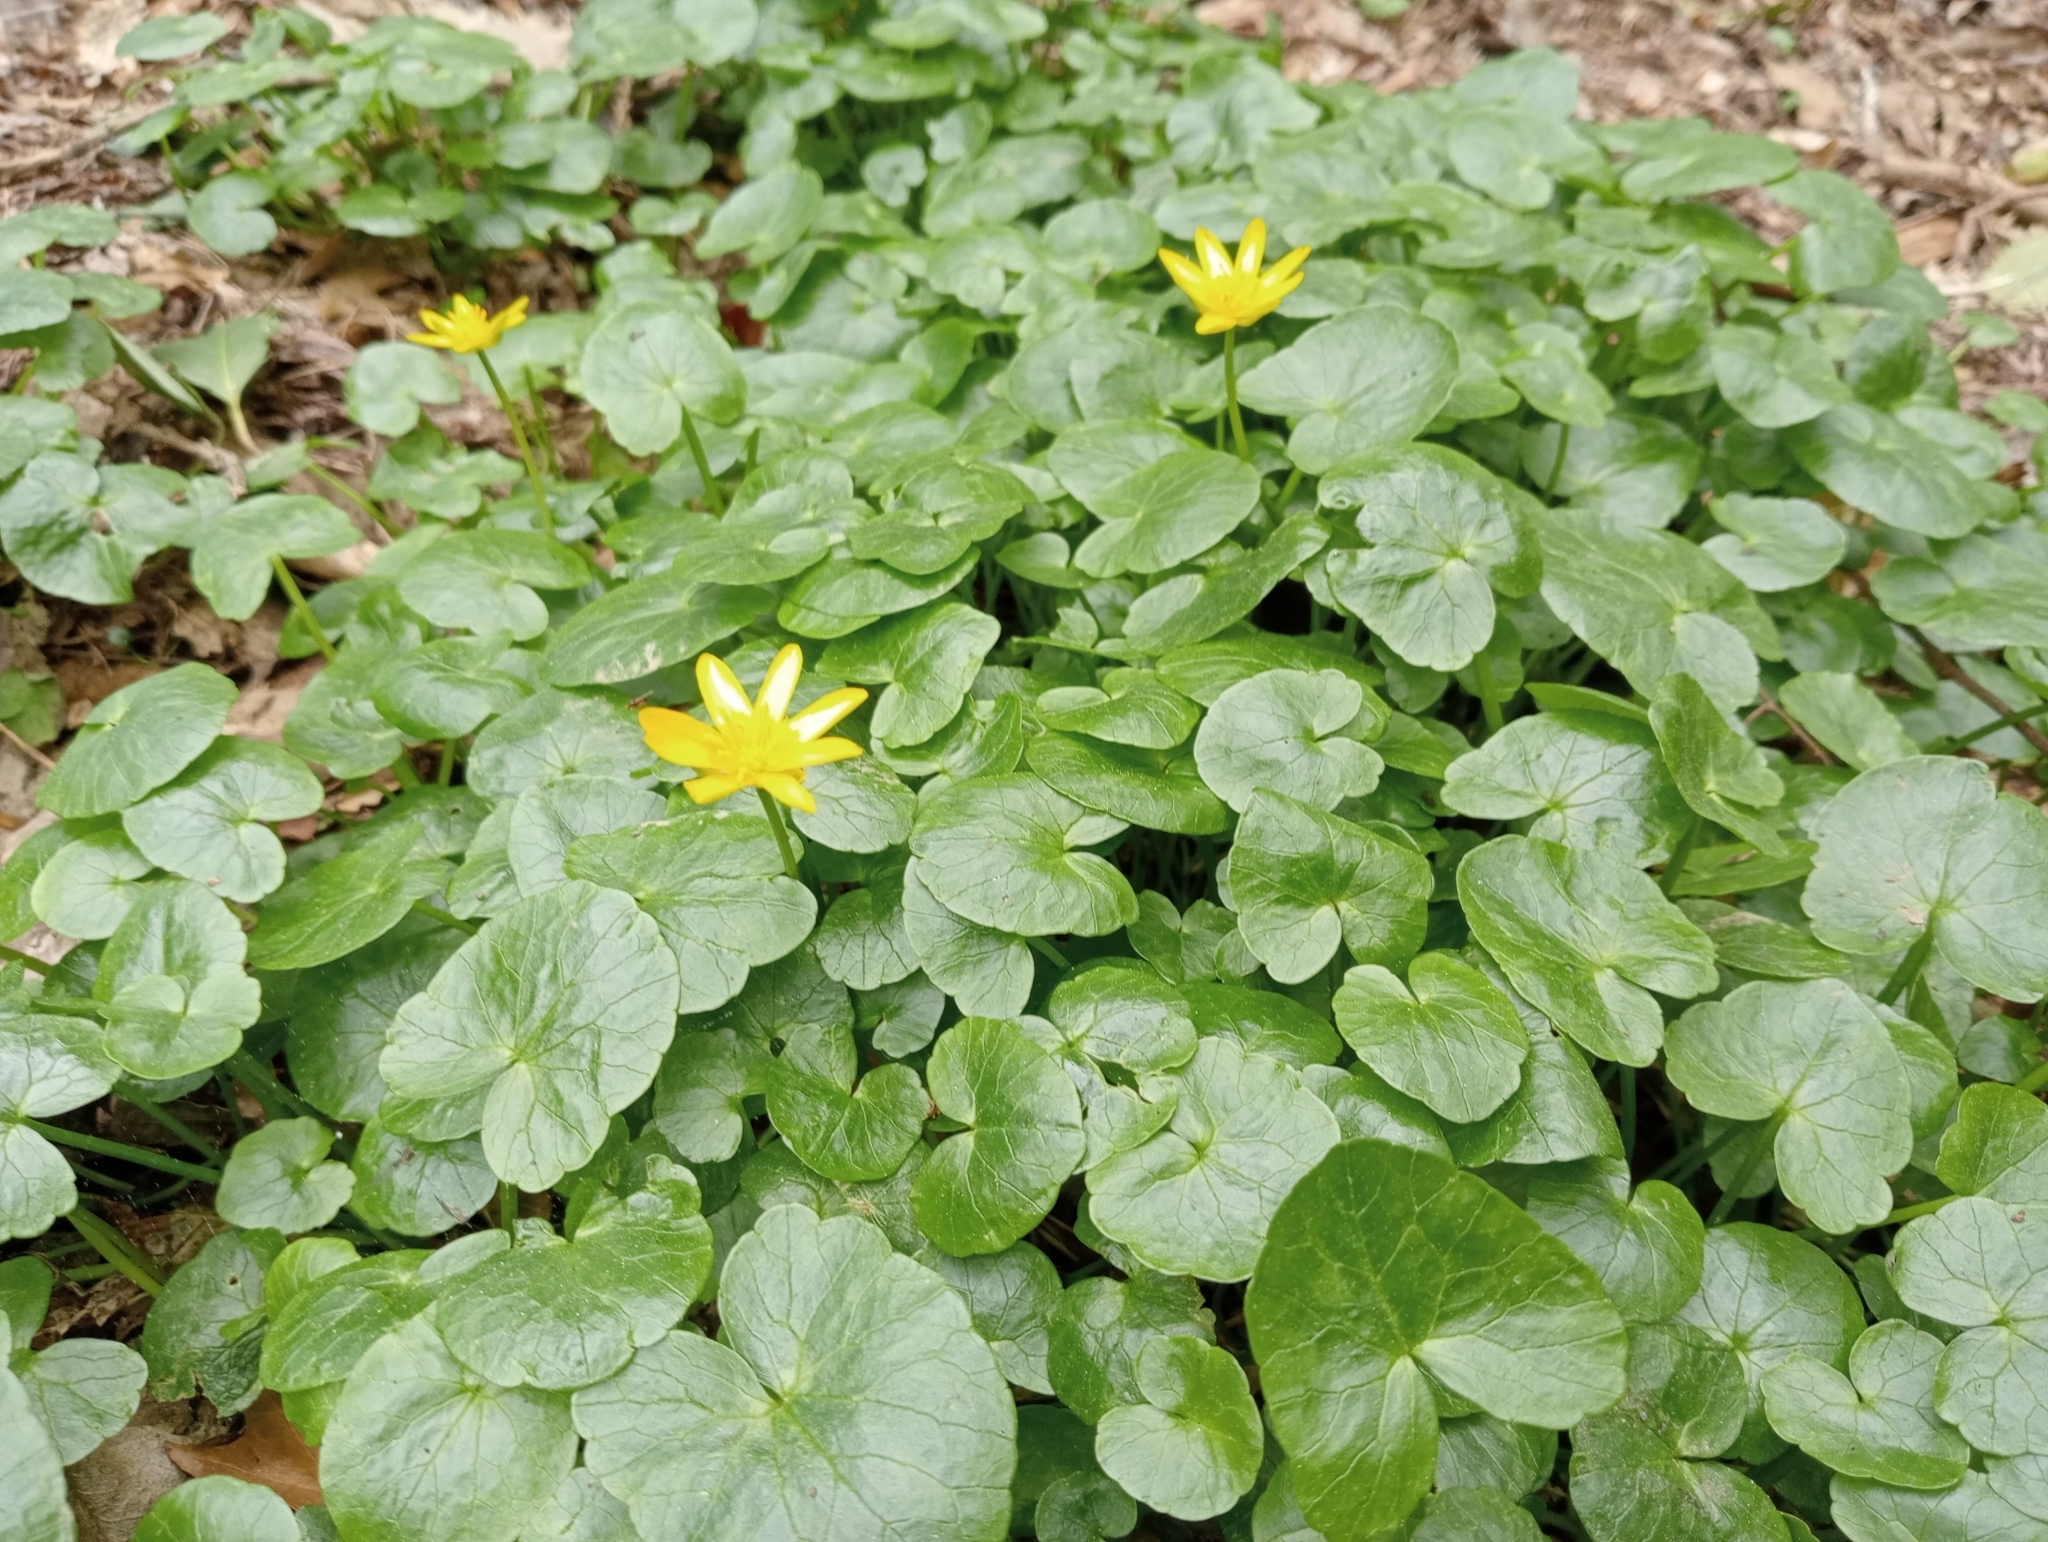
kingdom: Plantae
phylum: Tracheophyta
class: Magnoliopsida
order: Ranunculales
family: Ranunculaceae
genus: Ficaria
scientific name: Ficaria verna
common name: Lesser celandine
